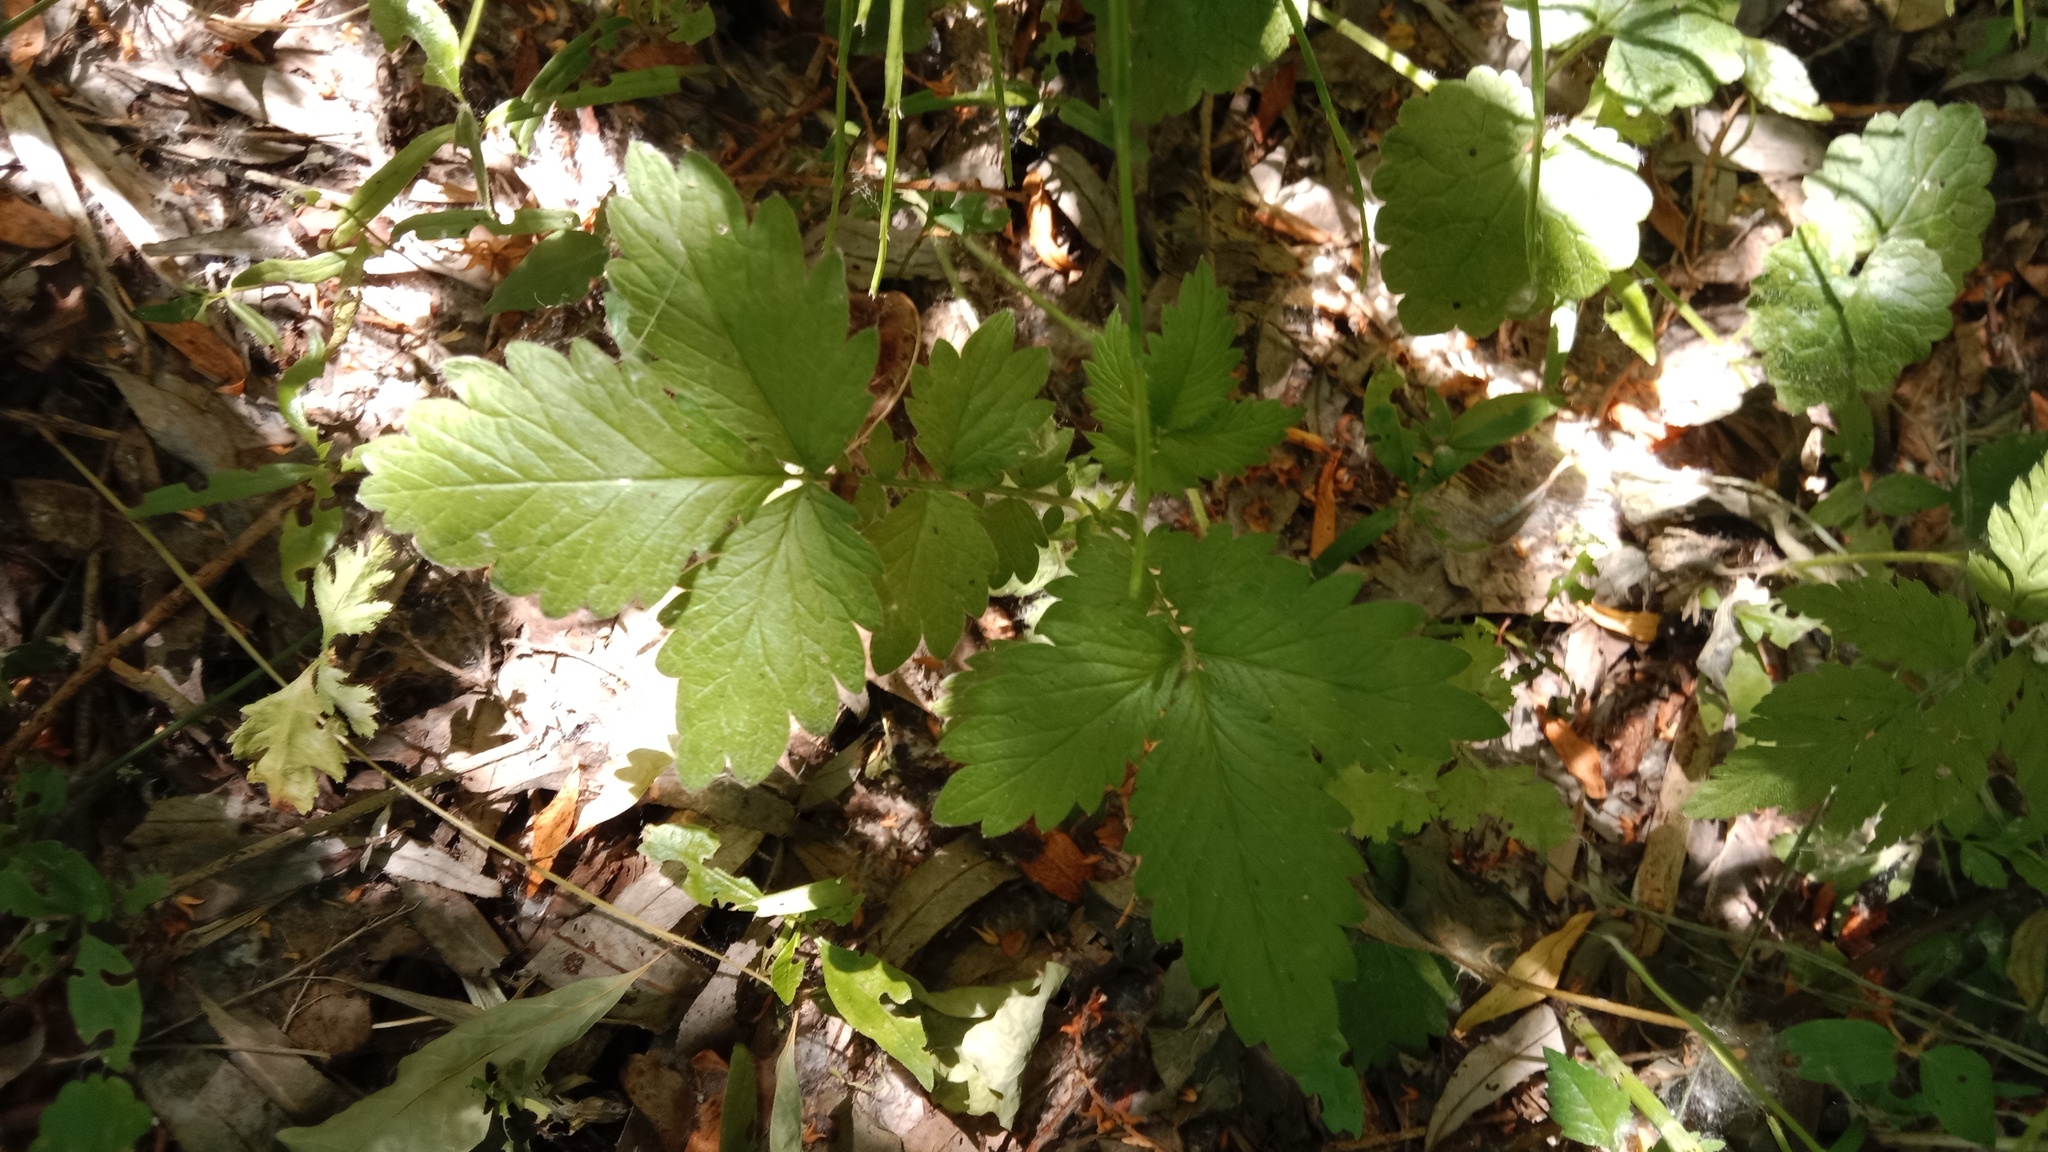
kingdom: Plantae
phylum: Tracheophyta
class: Magnoliopsida
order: Rosales
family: Rosaceae
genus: Agrimonia
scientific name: Agrimonia eupatoria
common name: Agrimony
